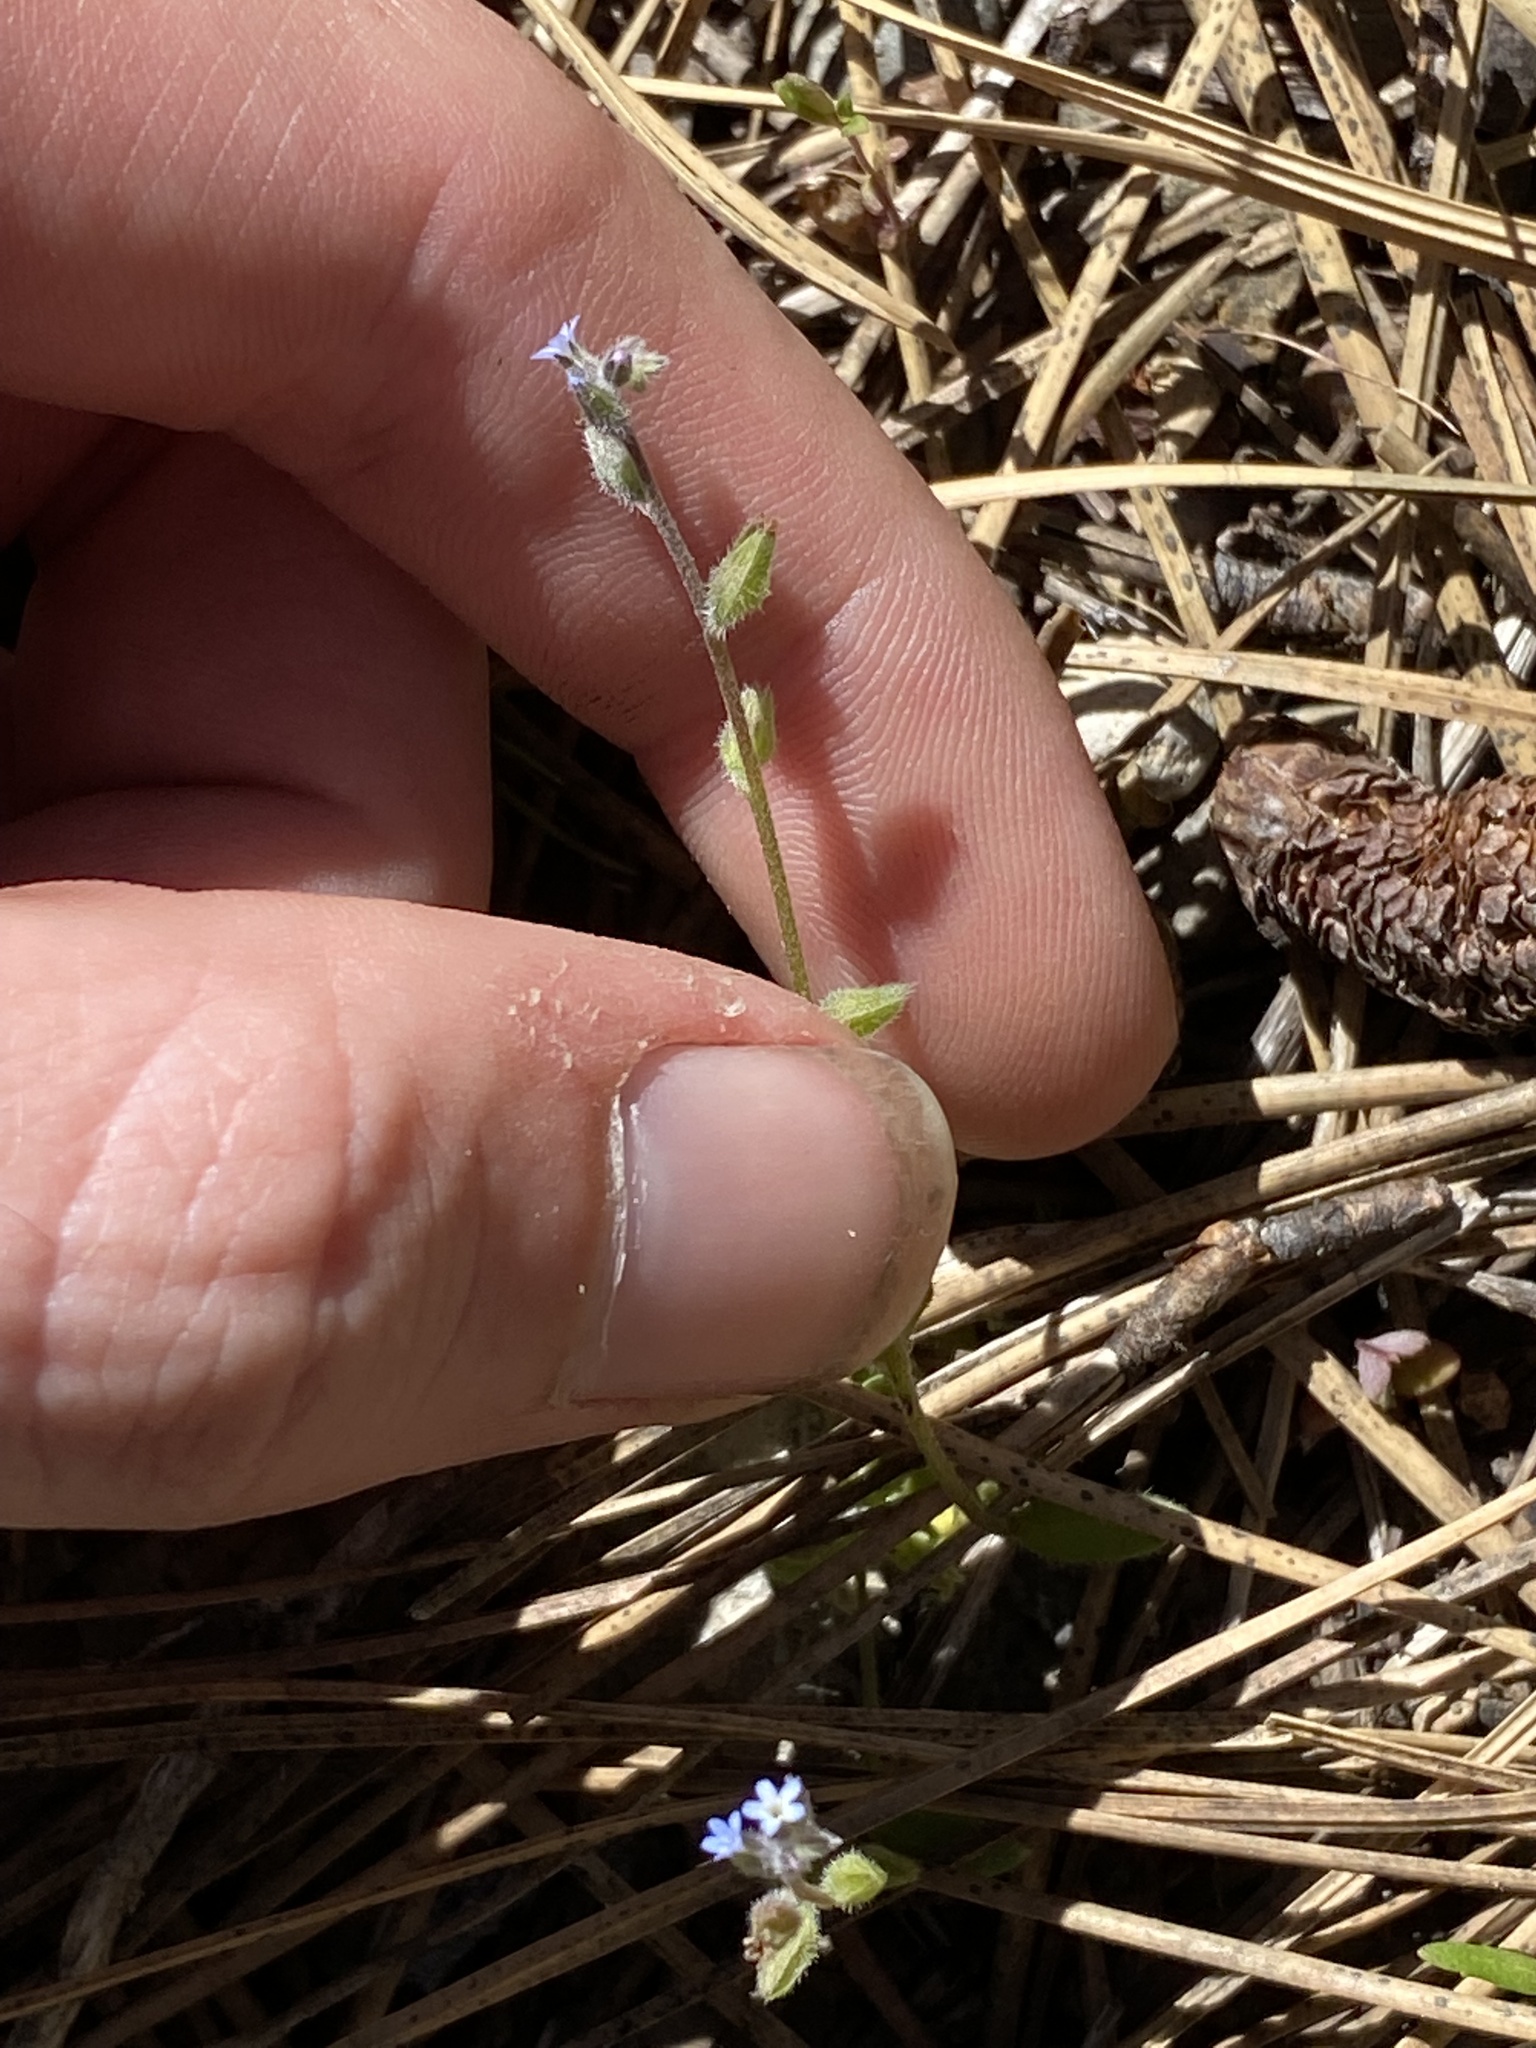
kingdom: Plantae
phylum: Tracheophyta
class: Magnoliopsida
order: Boraginales
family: Boraginaceae
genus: Myosotis
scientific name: Myosotis stricta
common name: Strict forget-me-not
